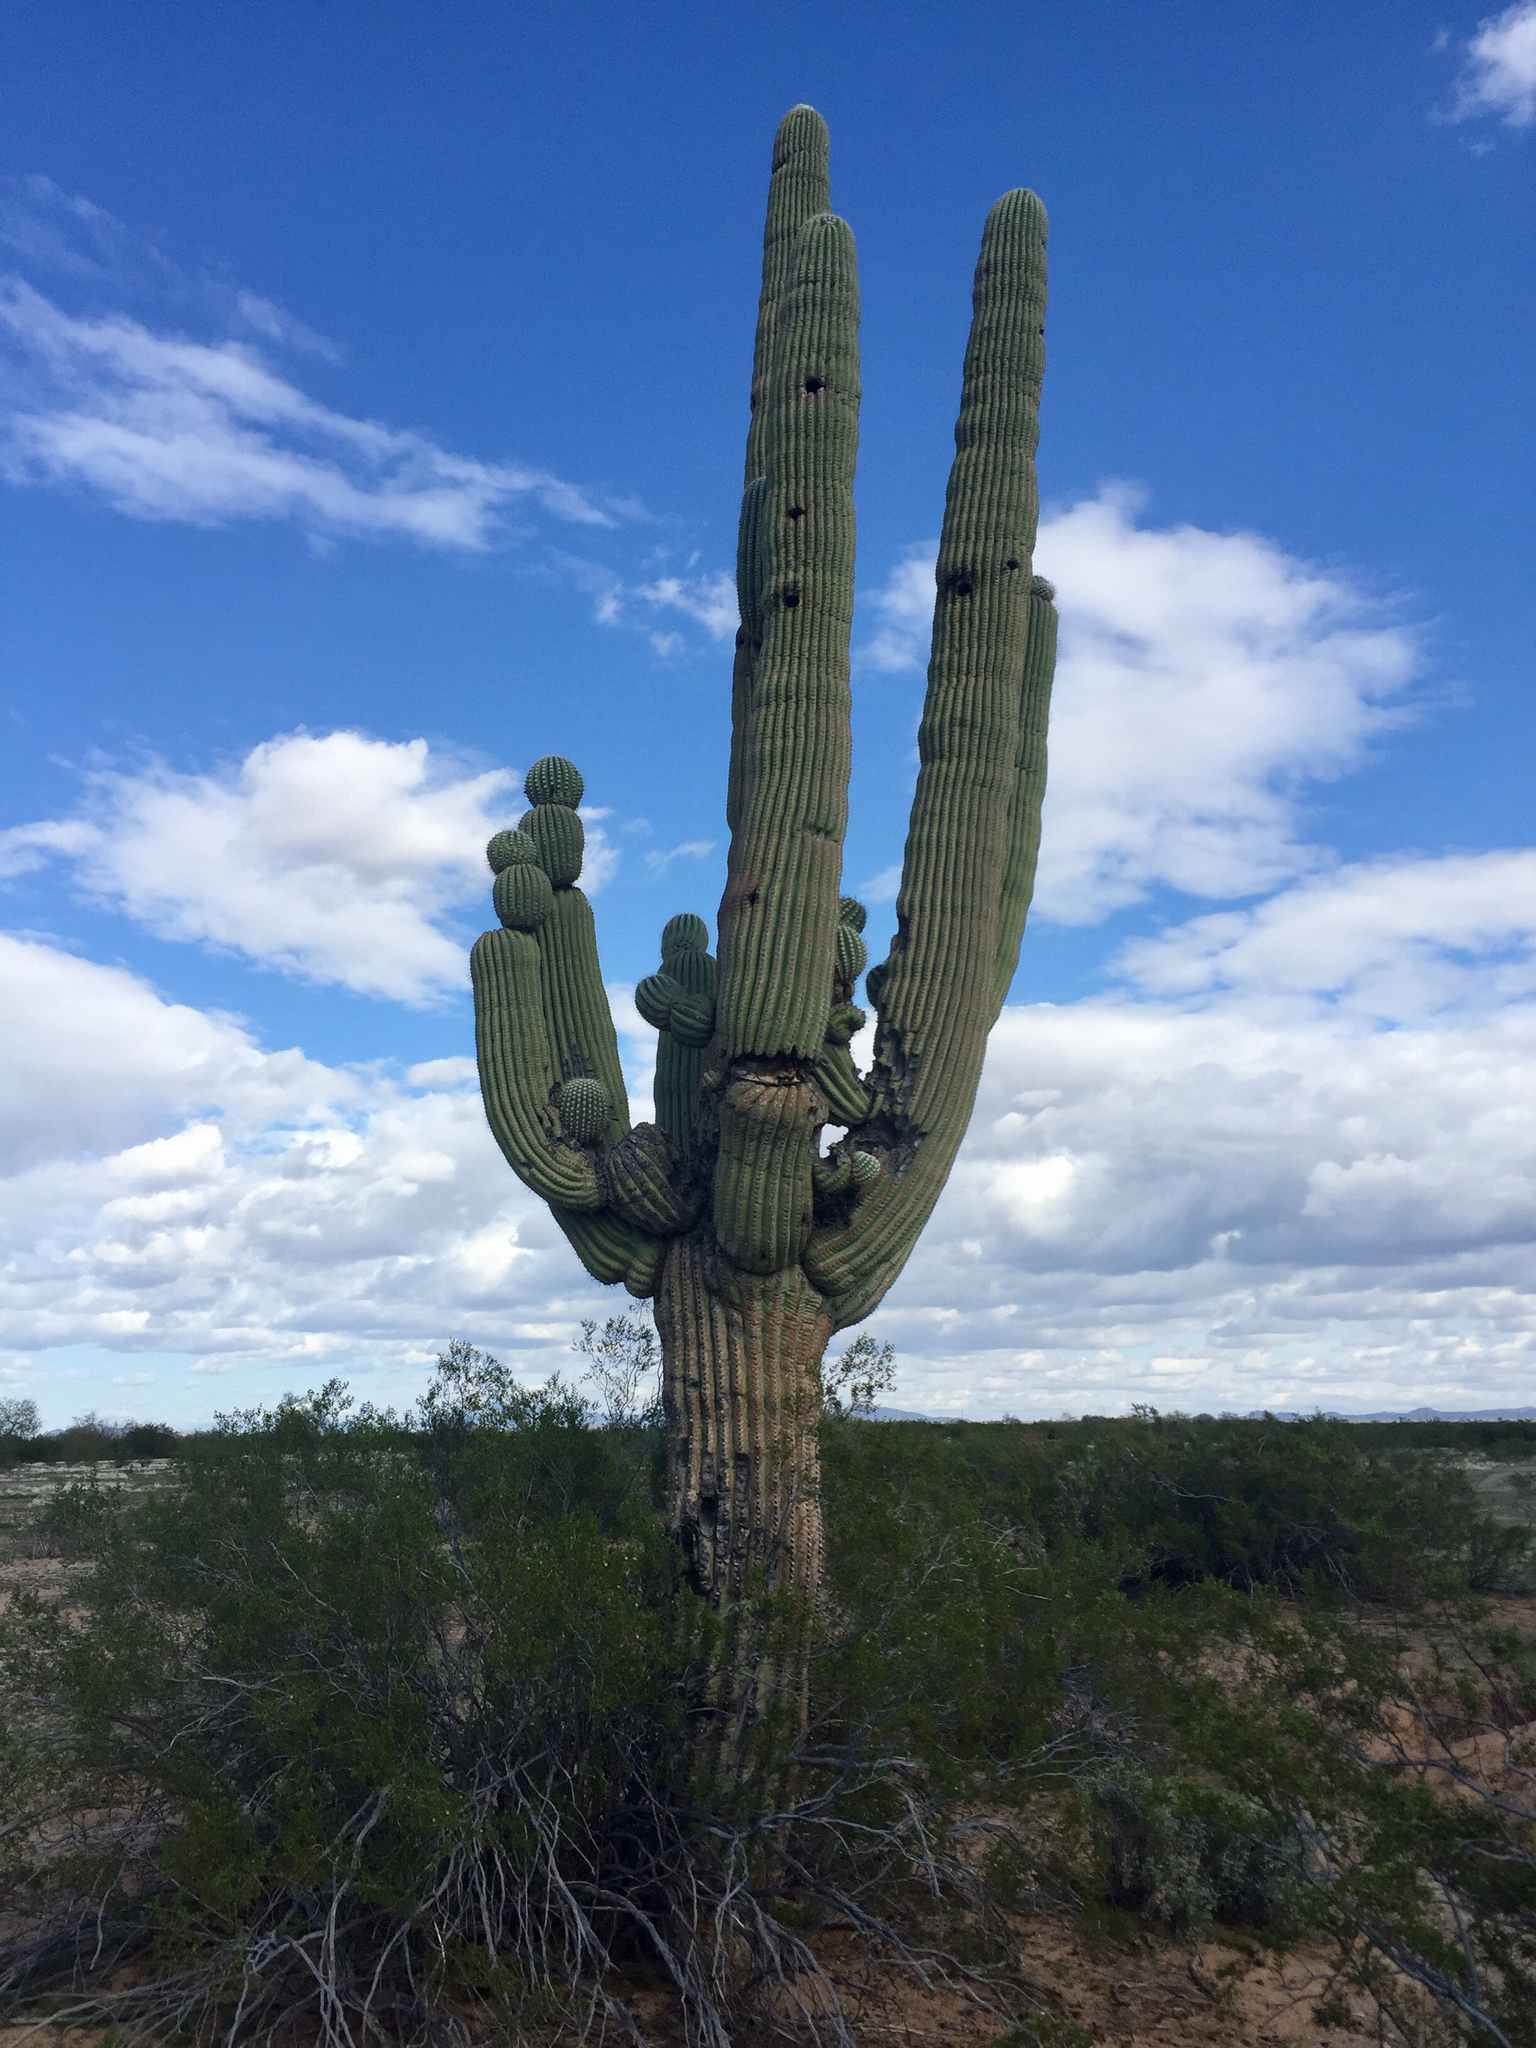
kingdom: Plantae
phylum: Tracheophyta
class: Magnoliopsida
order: Caryophyllales
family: Cactaceae
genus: Carnegiea
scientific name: Carnegiea gigantea
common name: Saguaro
